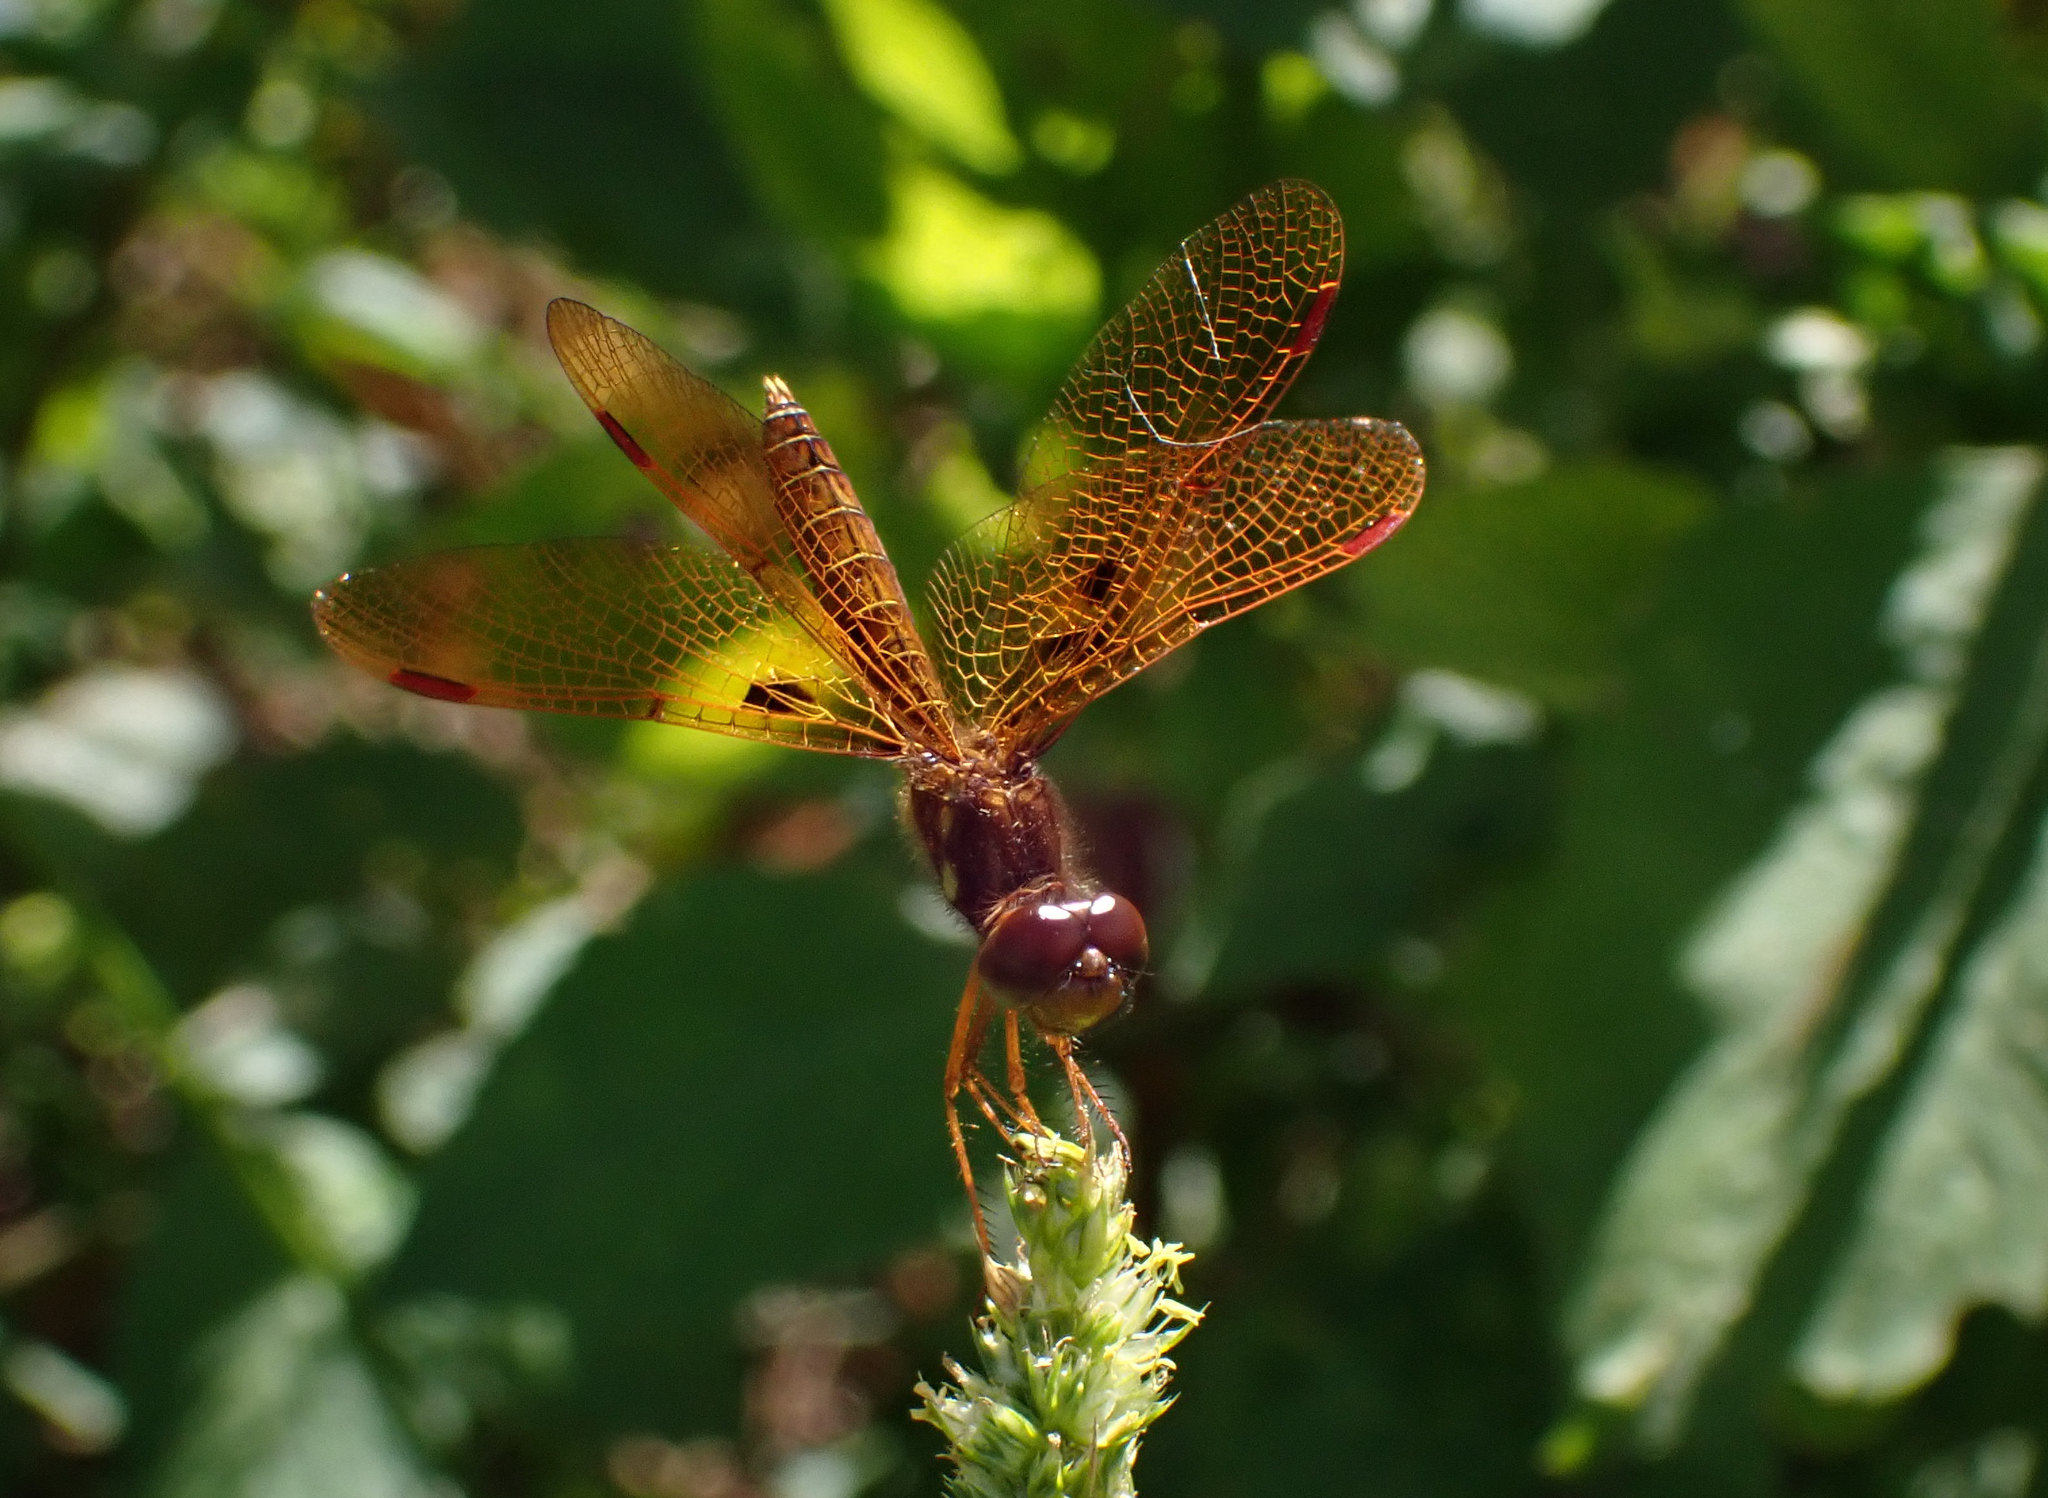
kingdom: Animalia
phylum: Arthropoda
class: Insecta
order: Odonata
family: Libellulidae
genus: Perithemis
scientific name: Perithemis tenera
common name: Eastern amberwing
